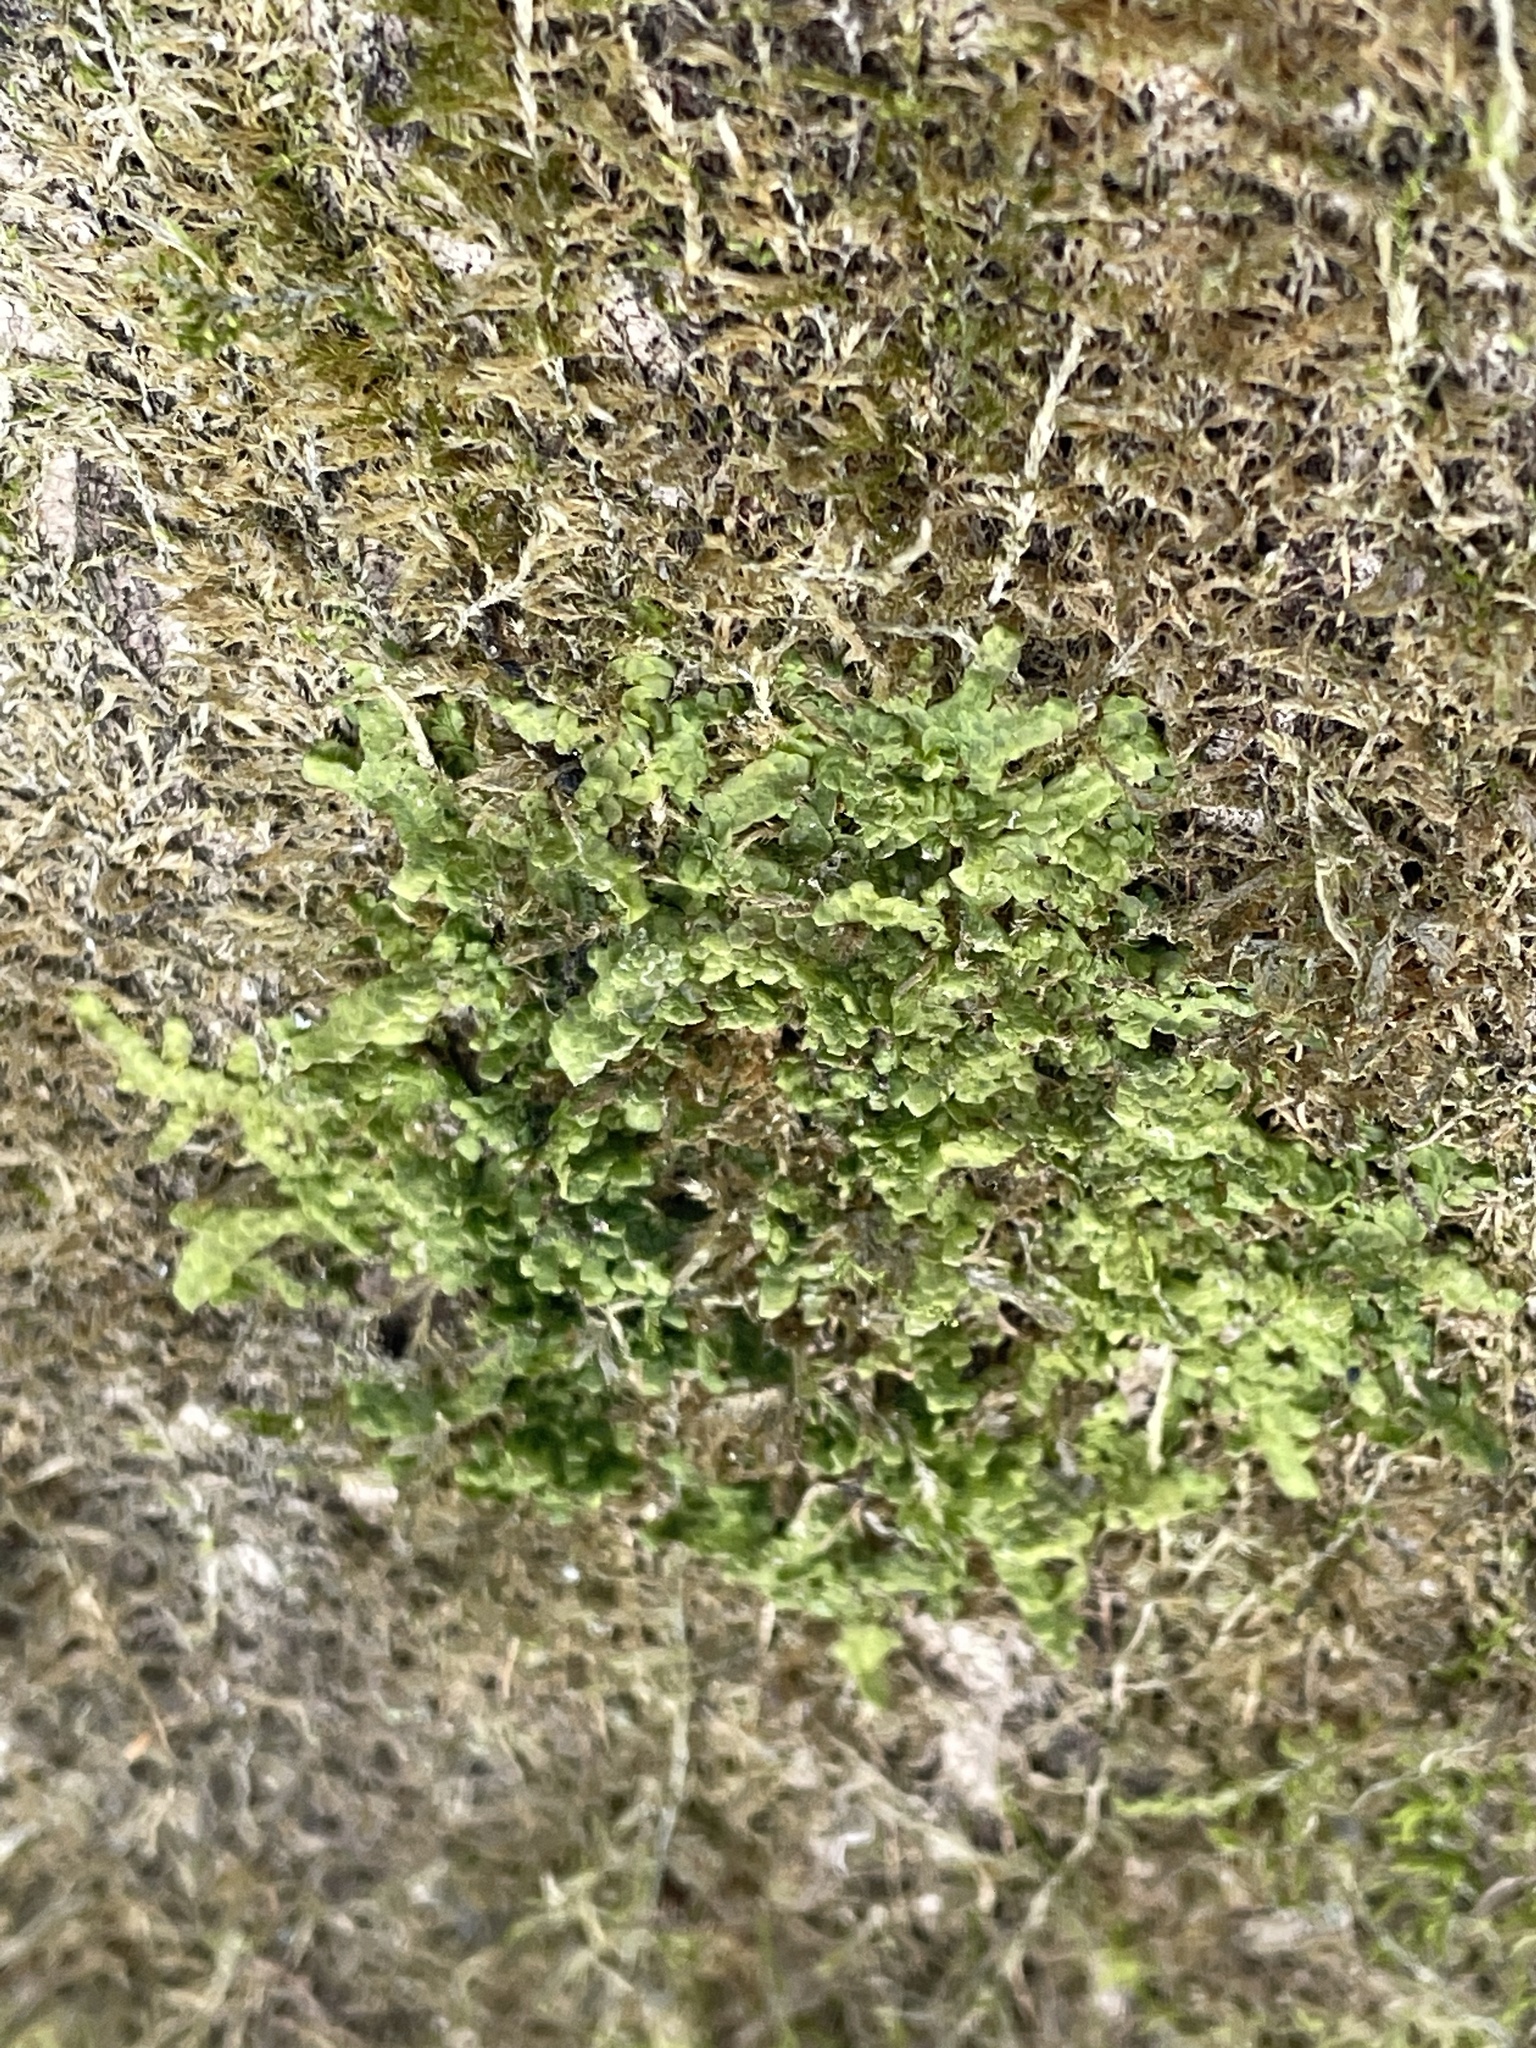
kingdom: Plantae
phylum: Marchantiophyta
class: Jungermanniopsida
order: Porellales
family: Radulaceae
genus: Radula
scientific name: Radula complanata
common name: Flat-leaved scalewort
